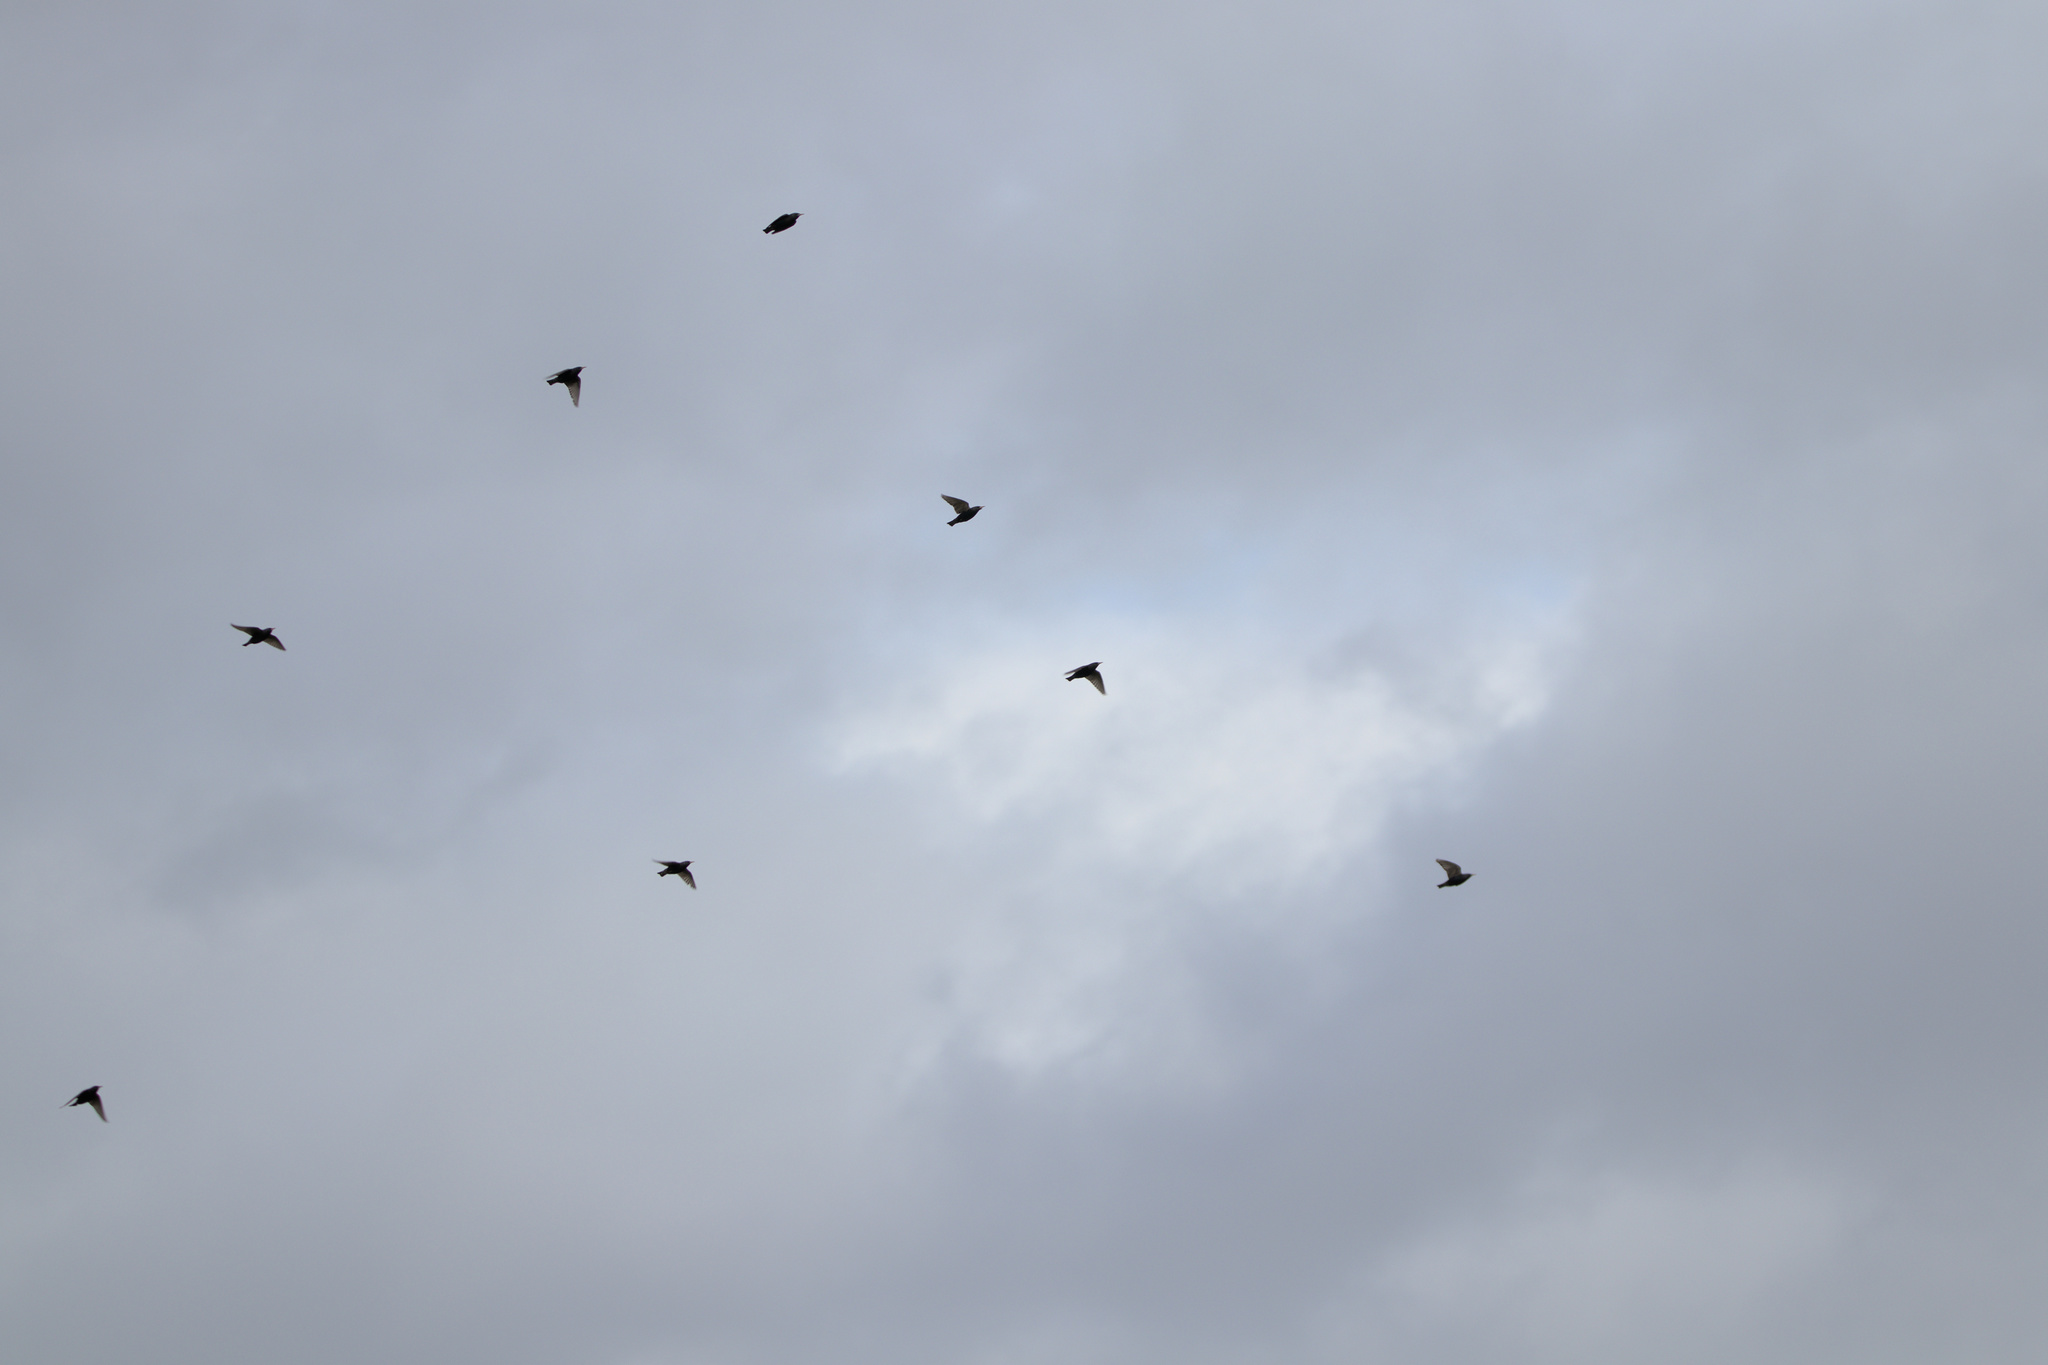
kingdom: Animalia
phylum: Chordata
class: Aves
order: Passeriformes
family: Sturnidae
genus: Sturnus
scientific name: Sturnus vulgaris
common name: Common starling
